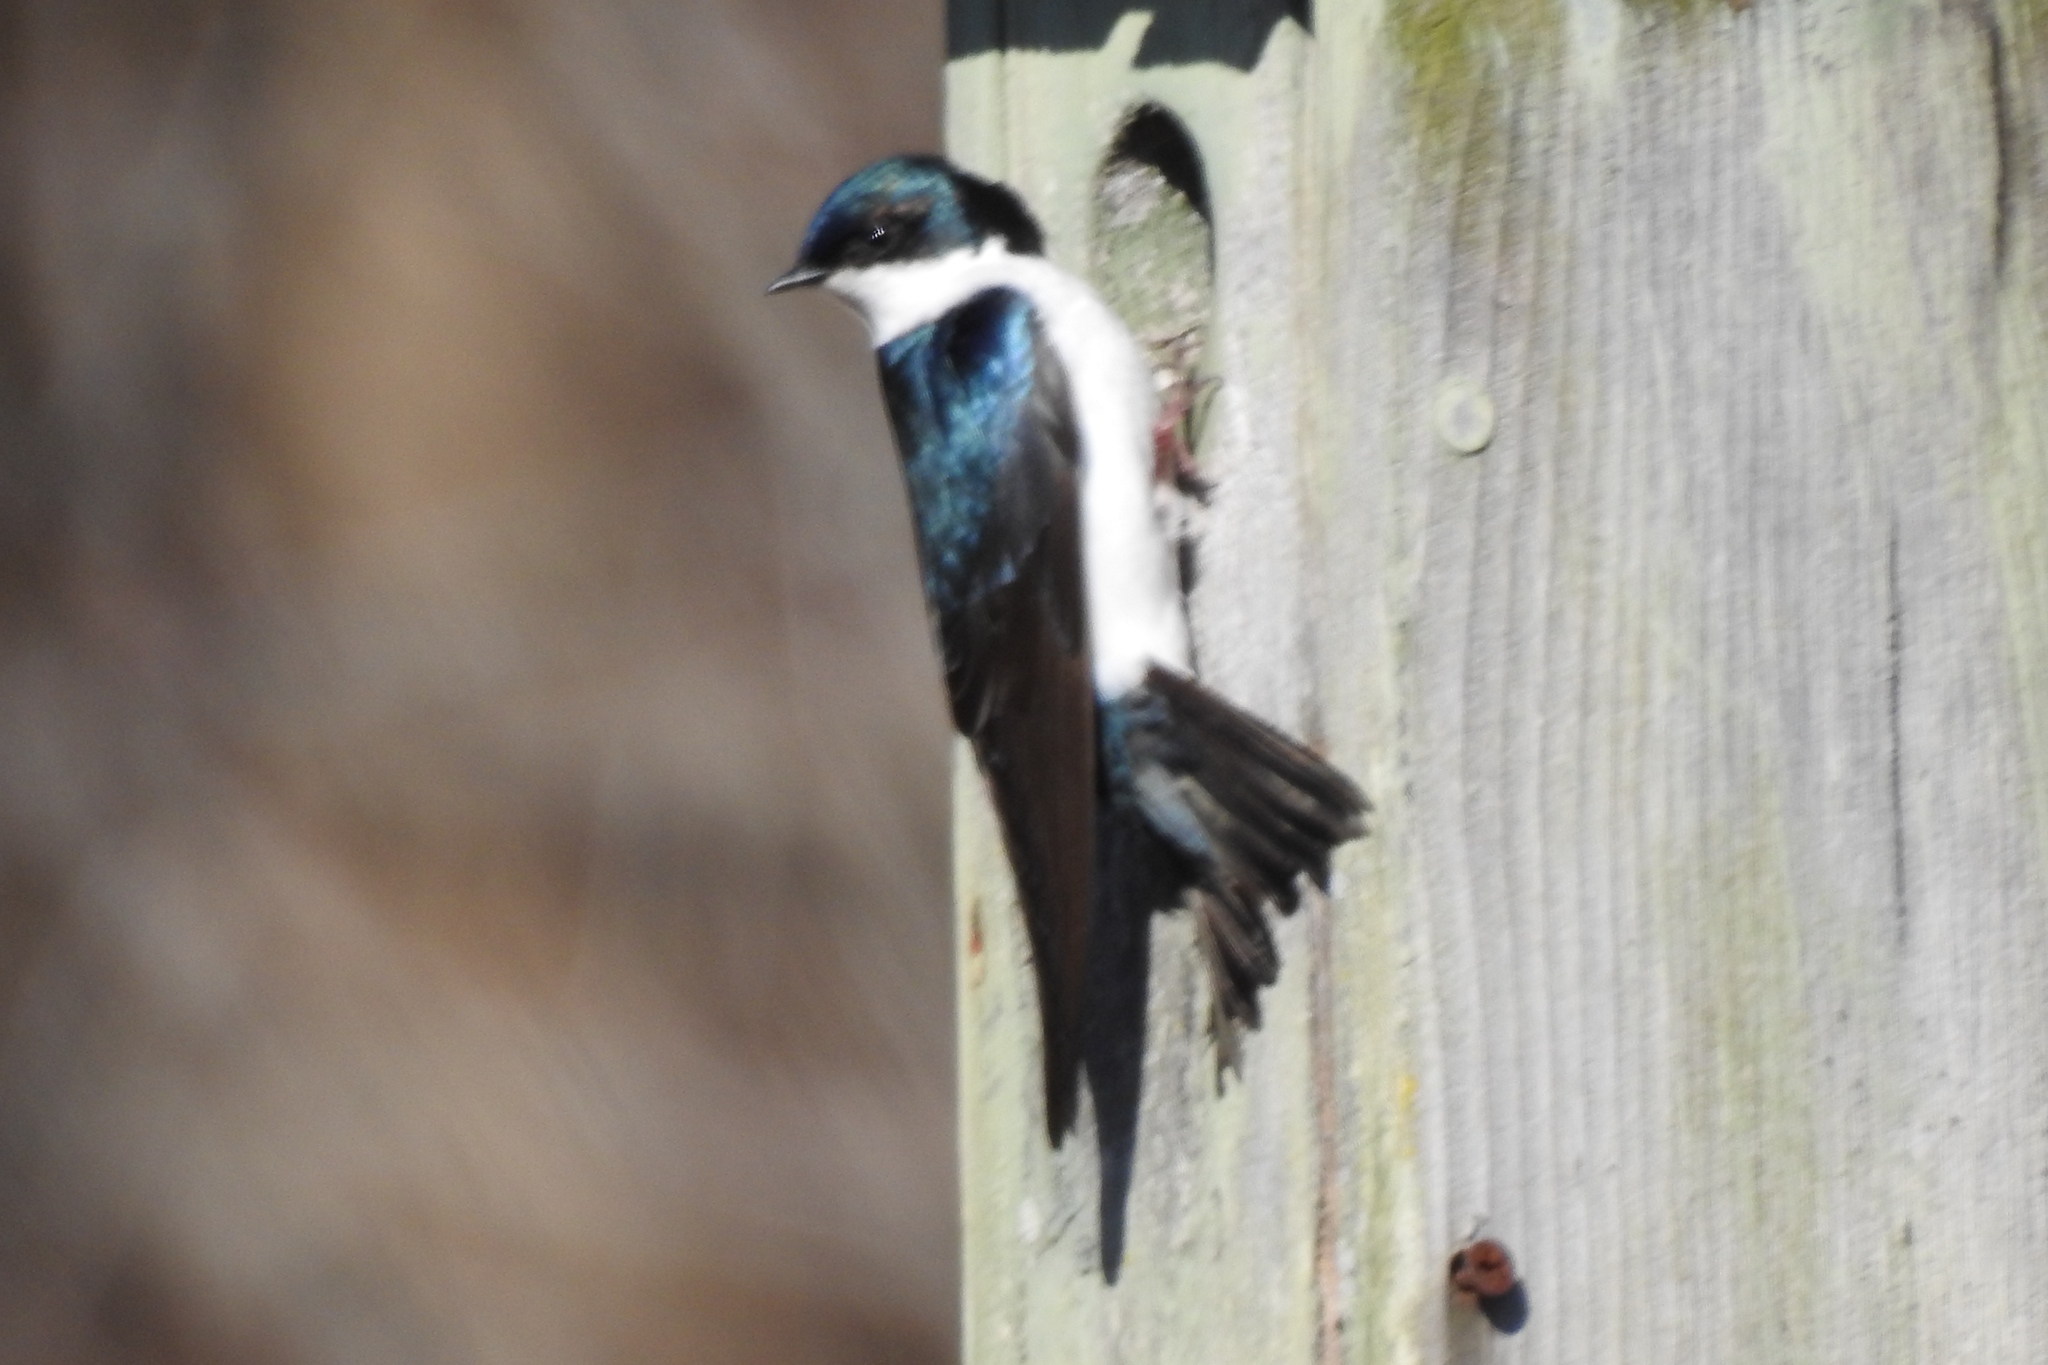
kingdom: Animalia
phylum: Chordata
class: Aves
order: Passeriformes
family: Hirundinidae
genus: Tachycineta
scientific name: Tachycineta bicolor
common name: Tree swallow
